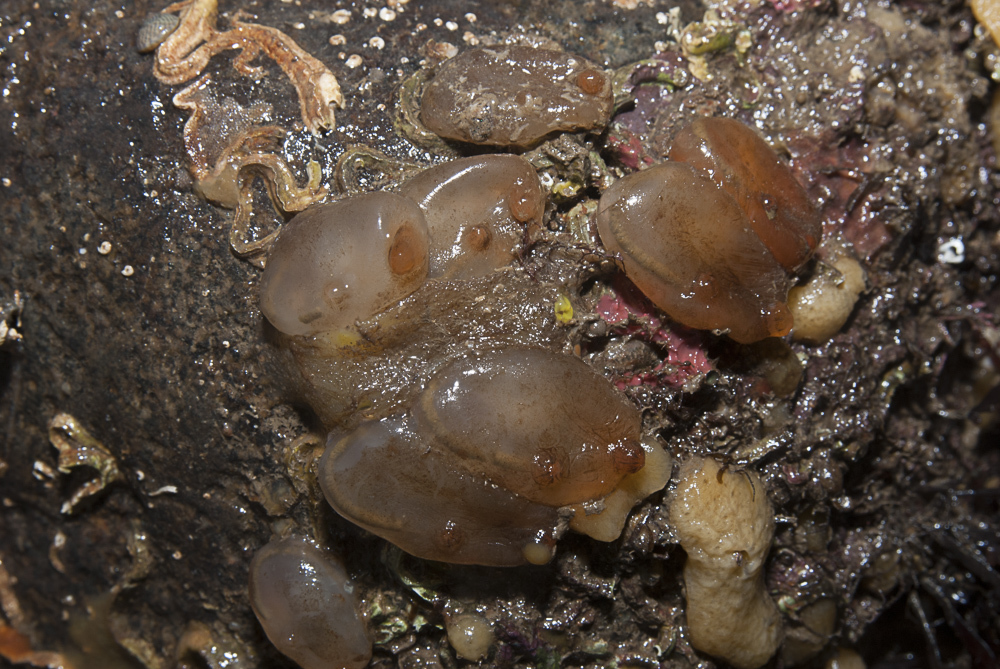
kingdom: Animalia
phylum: Chordata
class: Ascidiacea
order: Phlebobranchia
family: Corellidae
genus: Corella
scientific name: Corella eumyota
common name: Orange-tipped sea squirt
